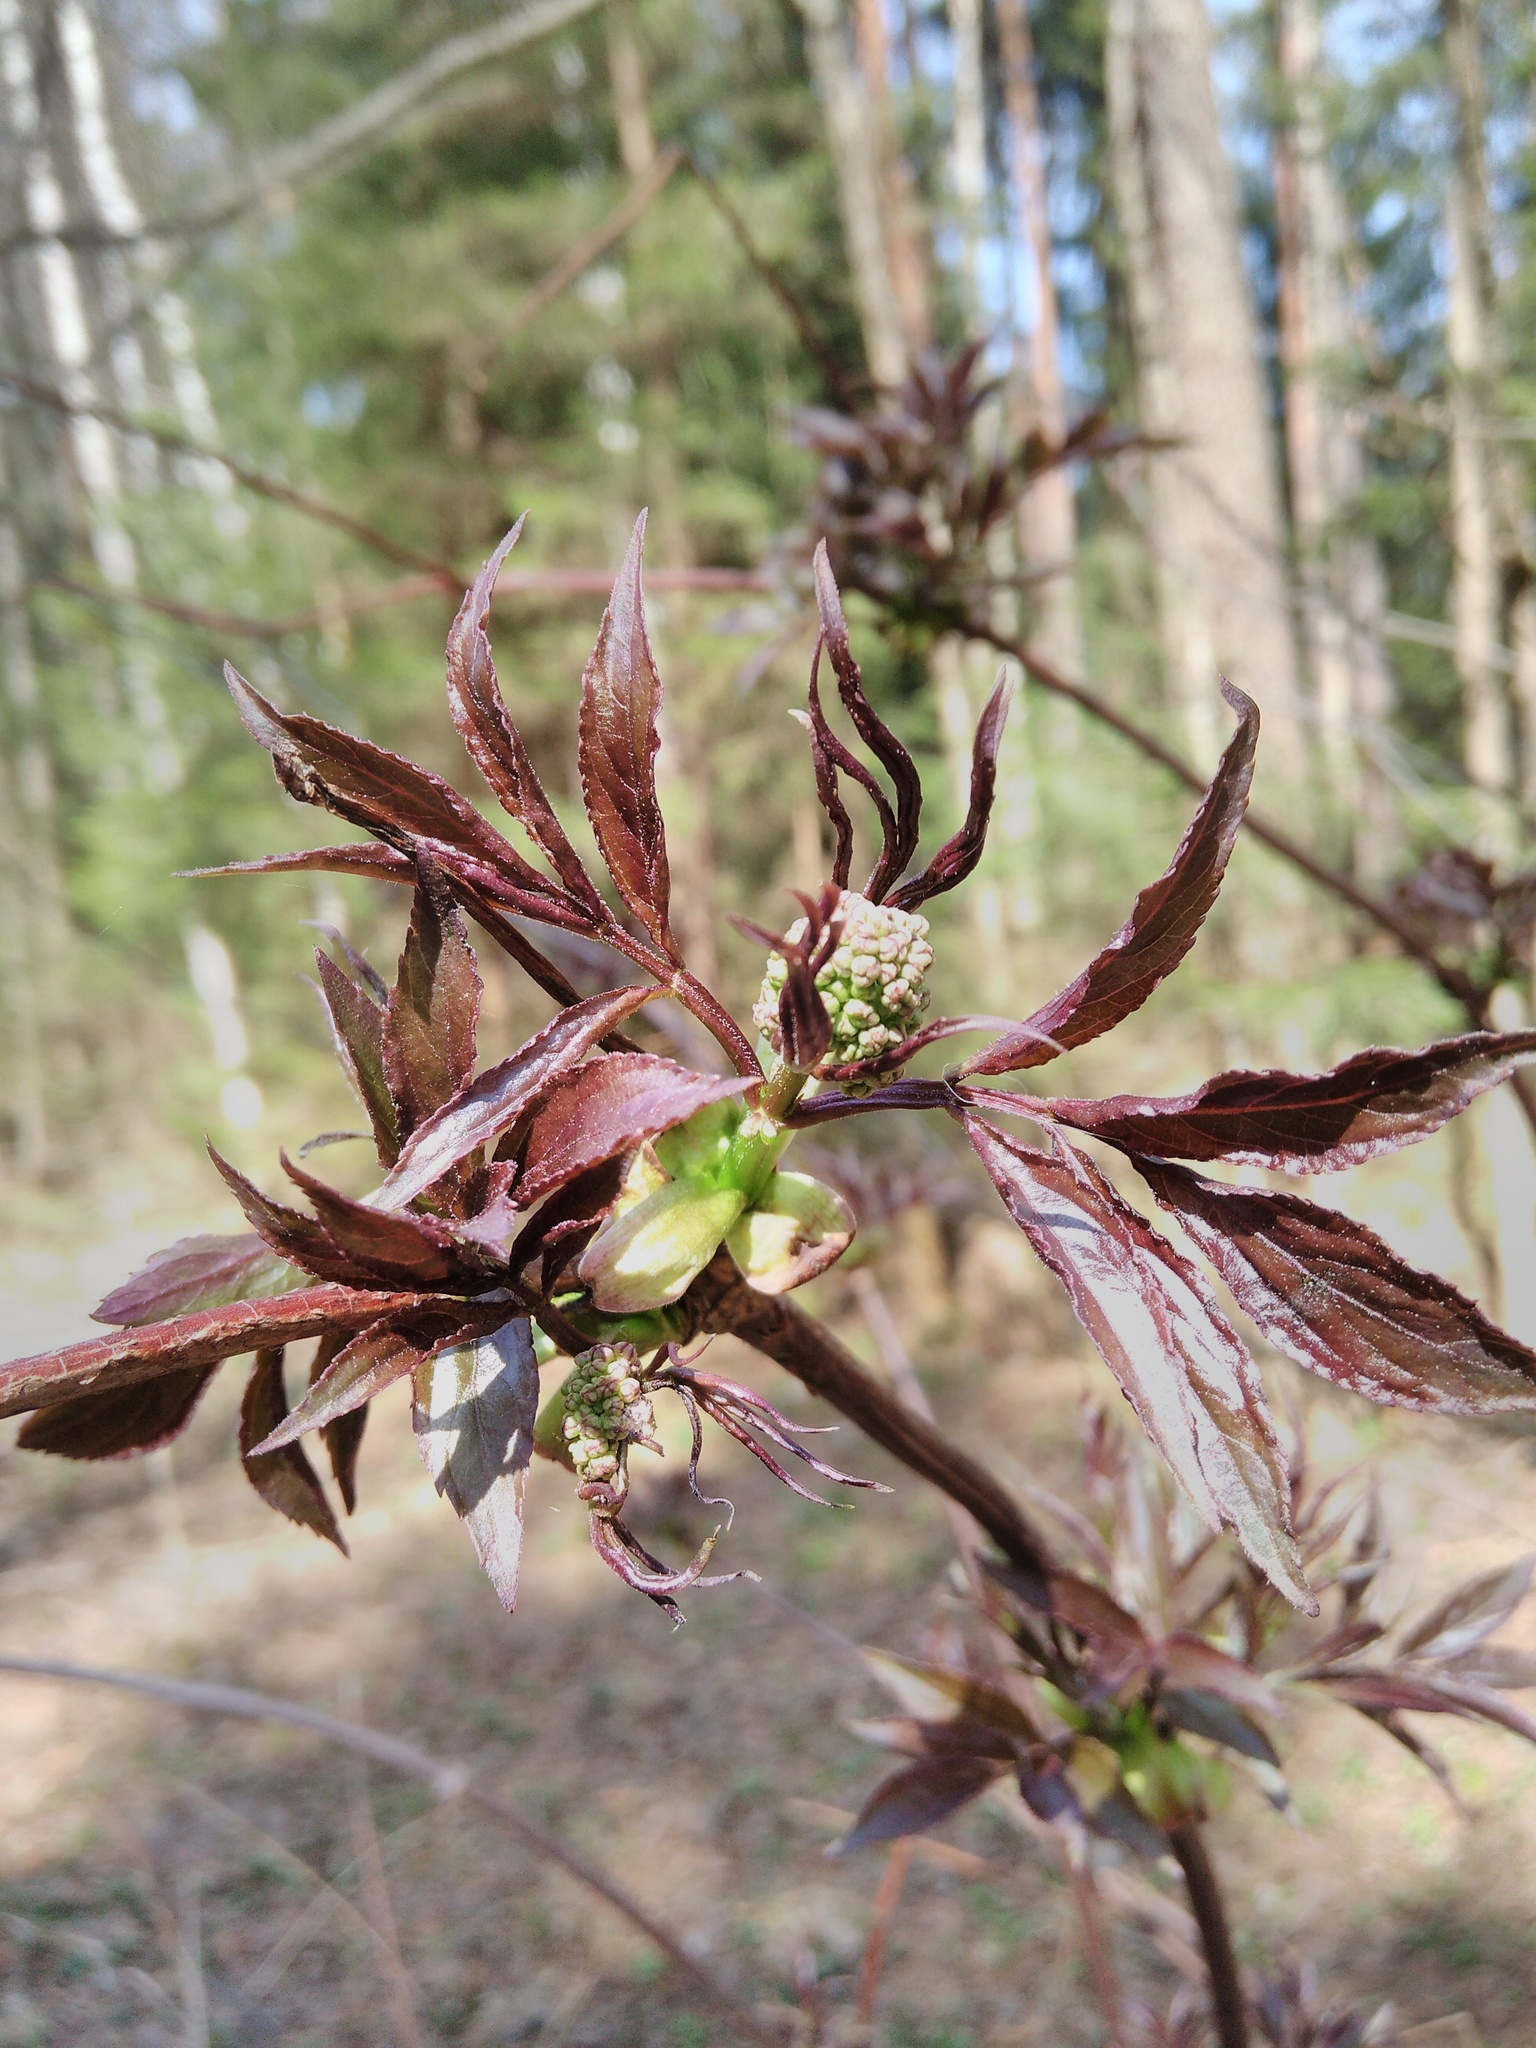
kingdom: Plantae
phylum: Tracheophyta
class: Magnoliopsida
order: Dipsacales
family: Viburnaceae
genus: Sambucus
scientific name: Sambucus racemosa
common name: Red-berried elder
